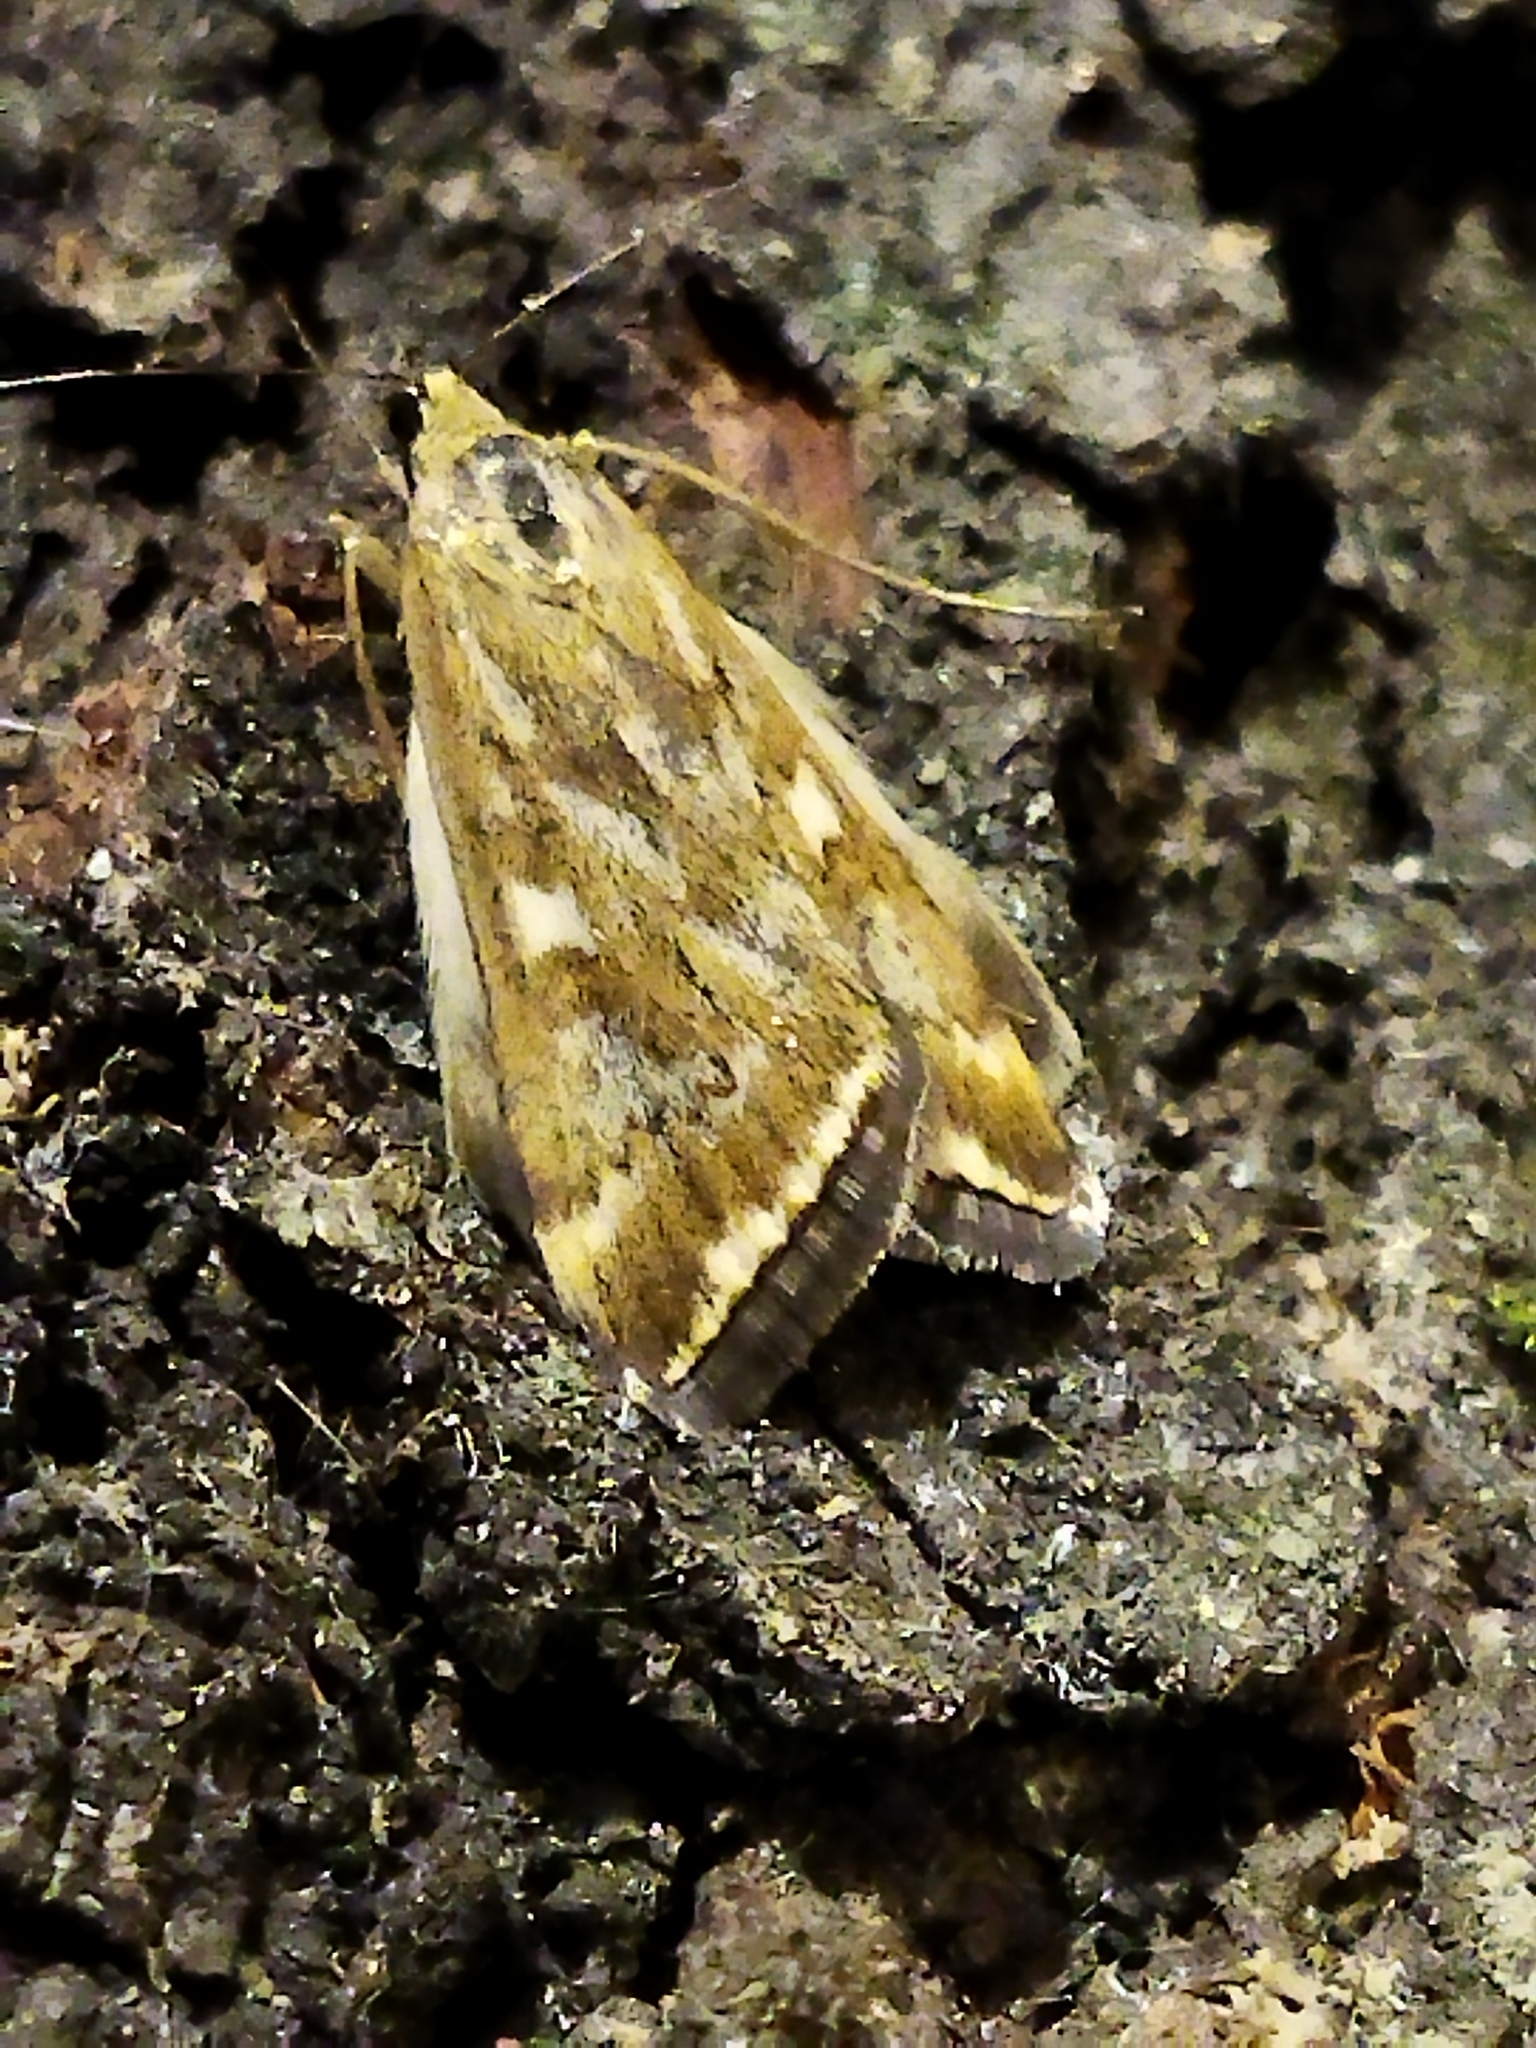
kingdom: Animalia
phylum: Arthropoda
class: Insecta
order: Lepidoptera
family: Crambidae
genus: Loxostege
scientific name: Loxostege sticticalis
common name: Crambid moth
